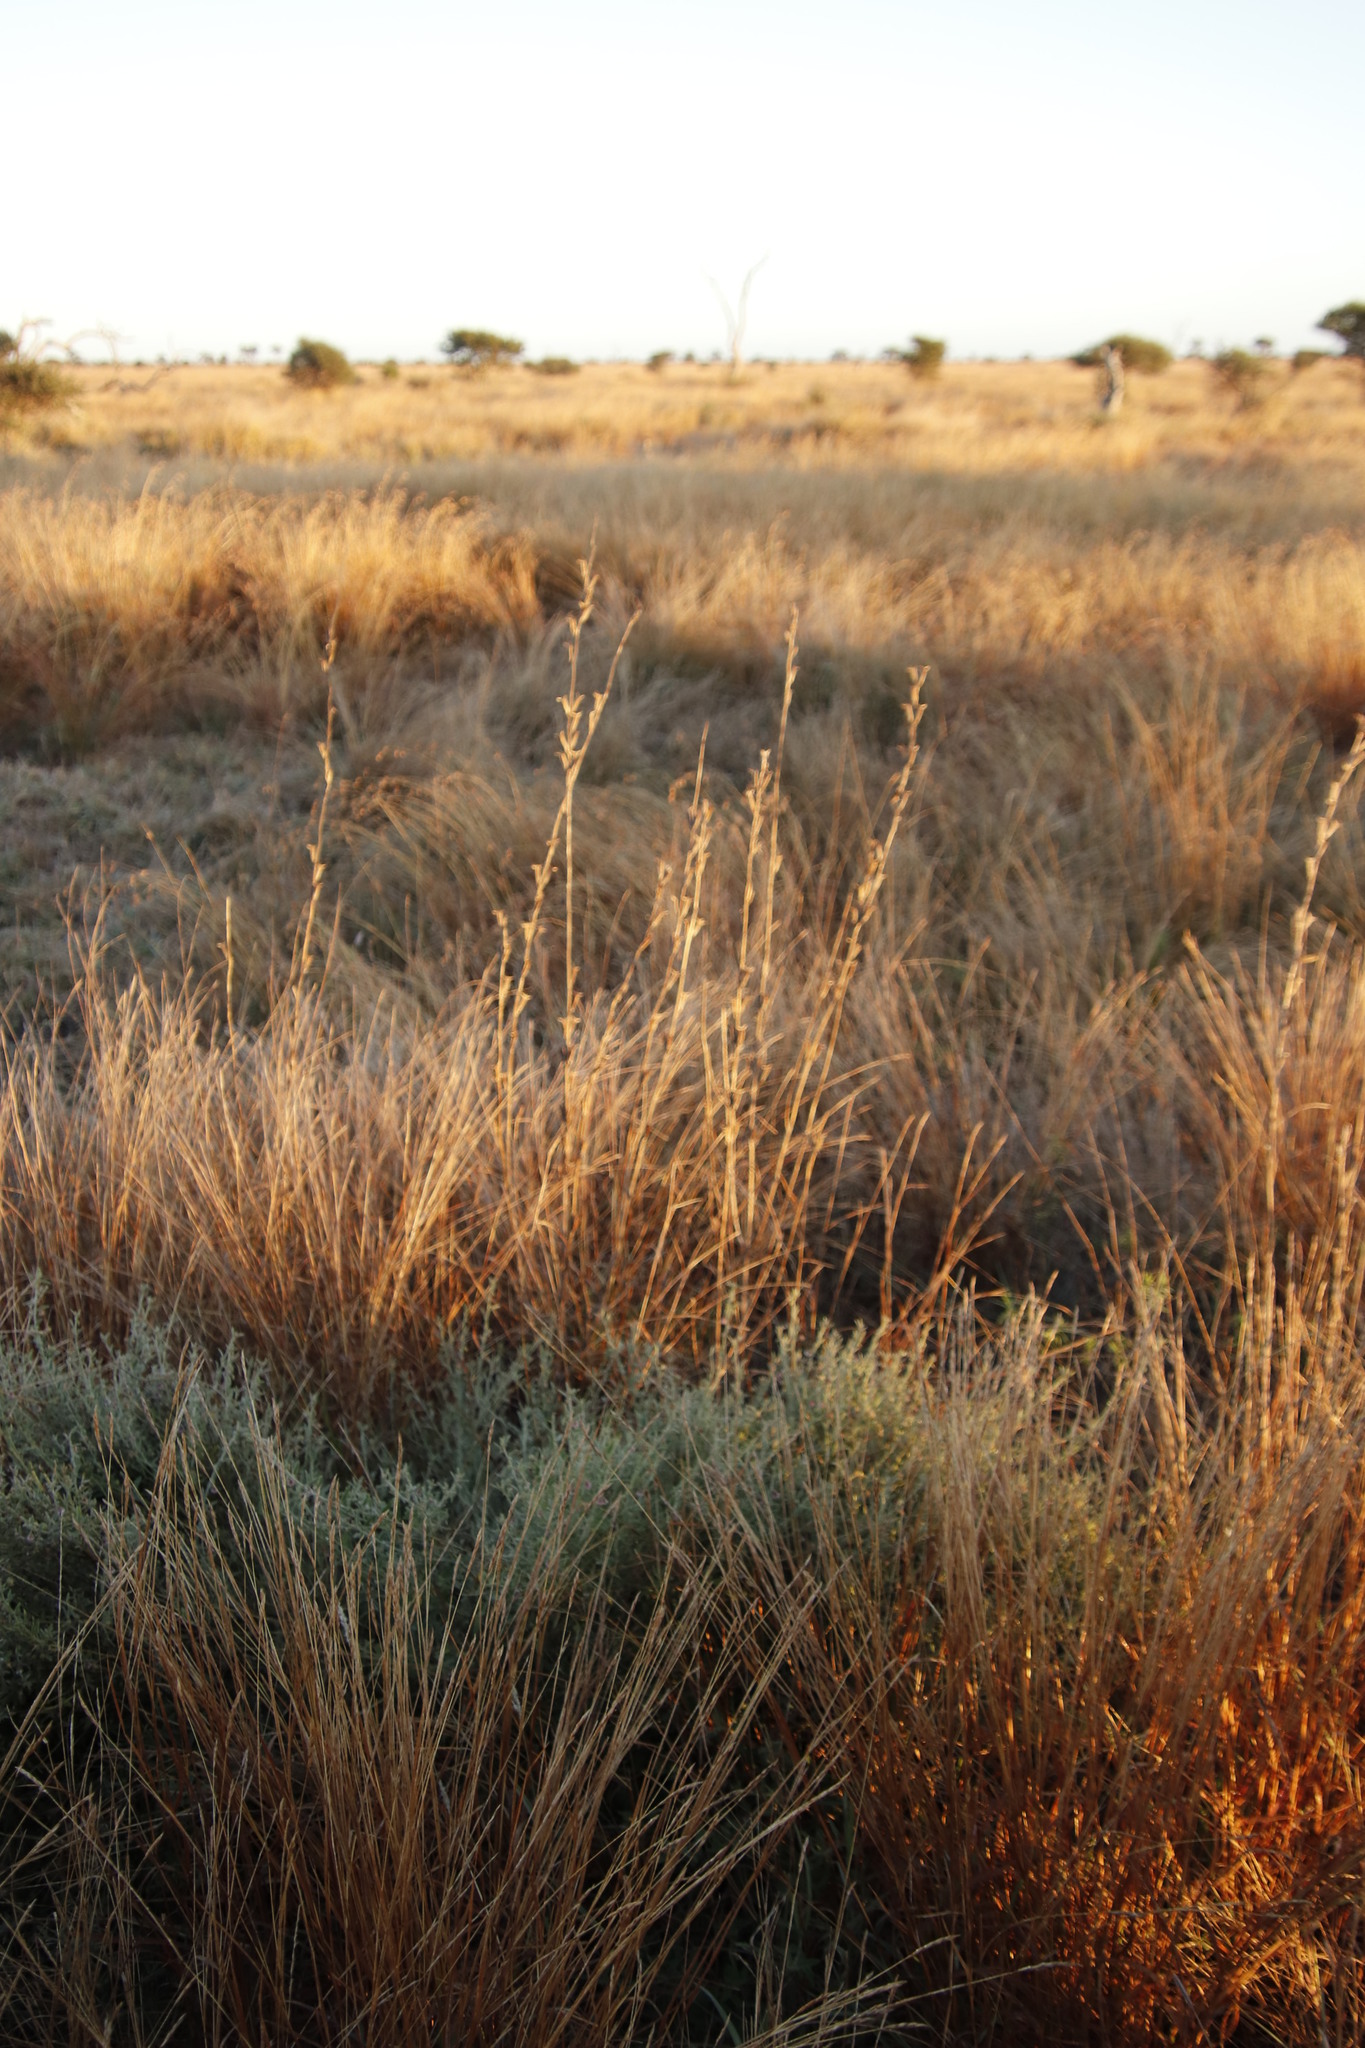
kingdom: Plantae
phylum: Tracheophyta
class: Magnoliopsida
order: Lamiales
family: Pedaliaceae
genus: Sesamum
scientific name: Sesamum trilobum
